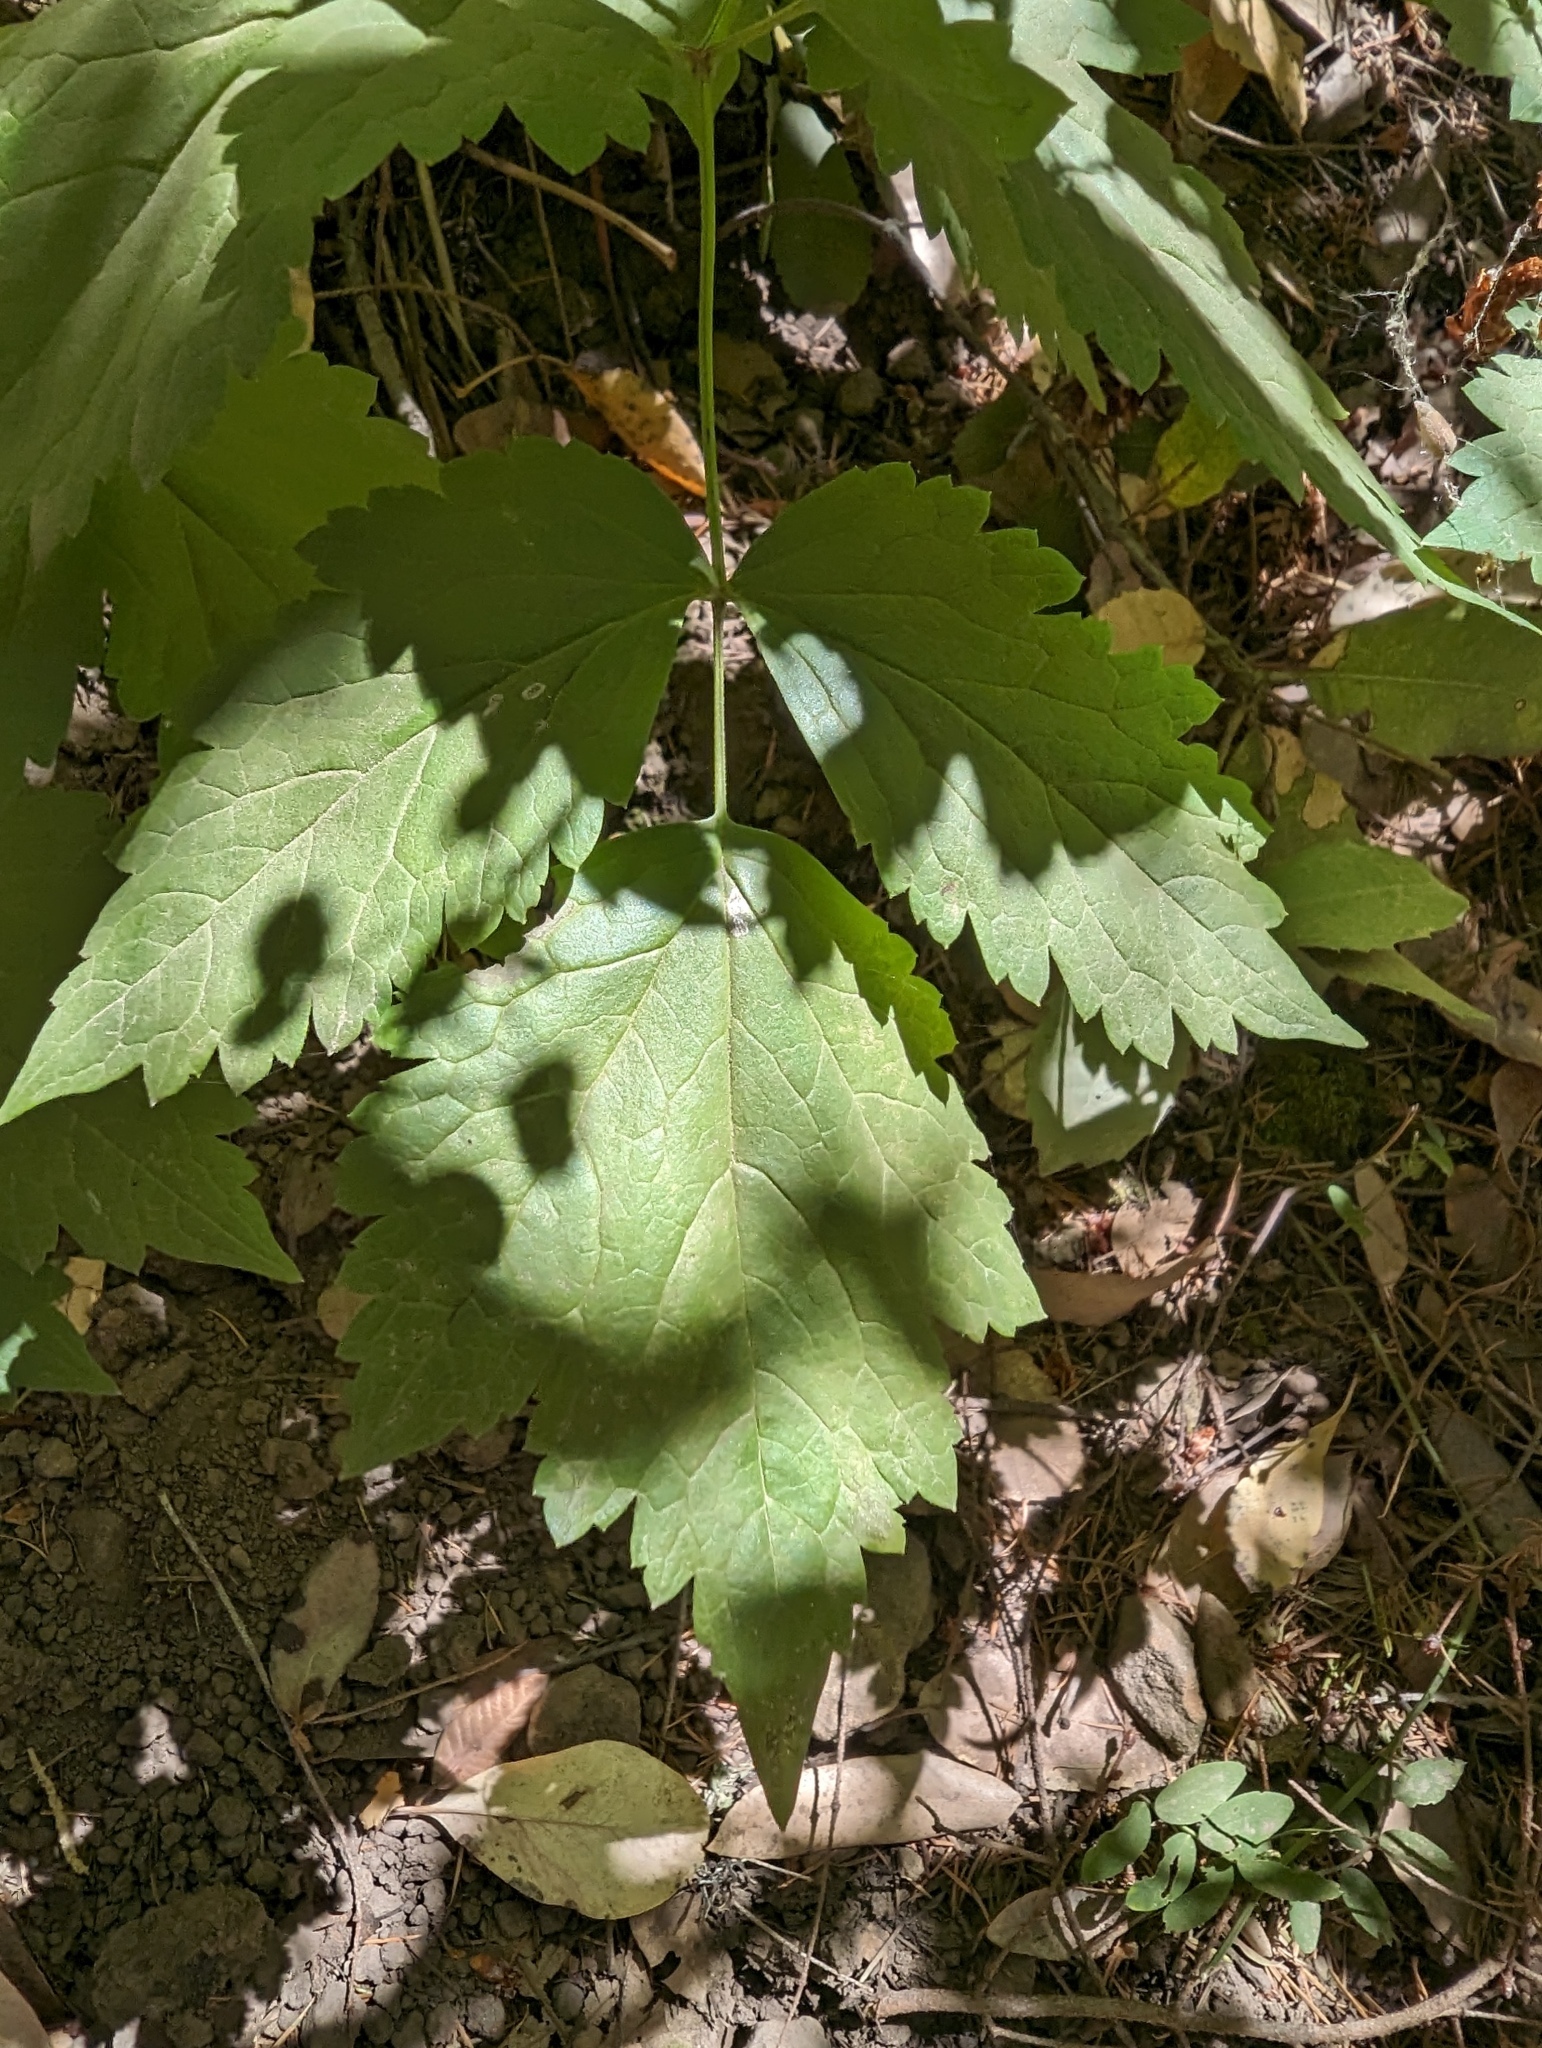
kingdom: Plantae
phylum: Tracheophyta
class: Magnoliopsida
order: Ranunculales
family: Ranunculaceae
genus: Actaea
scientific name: Actaea rubra
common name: Red baneberry
